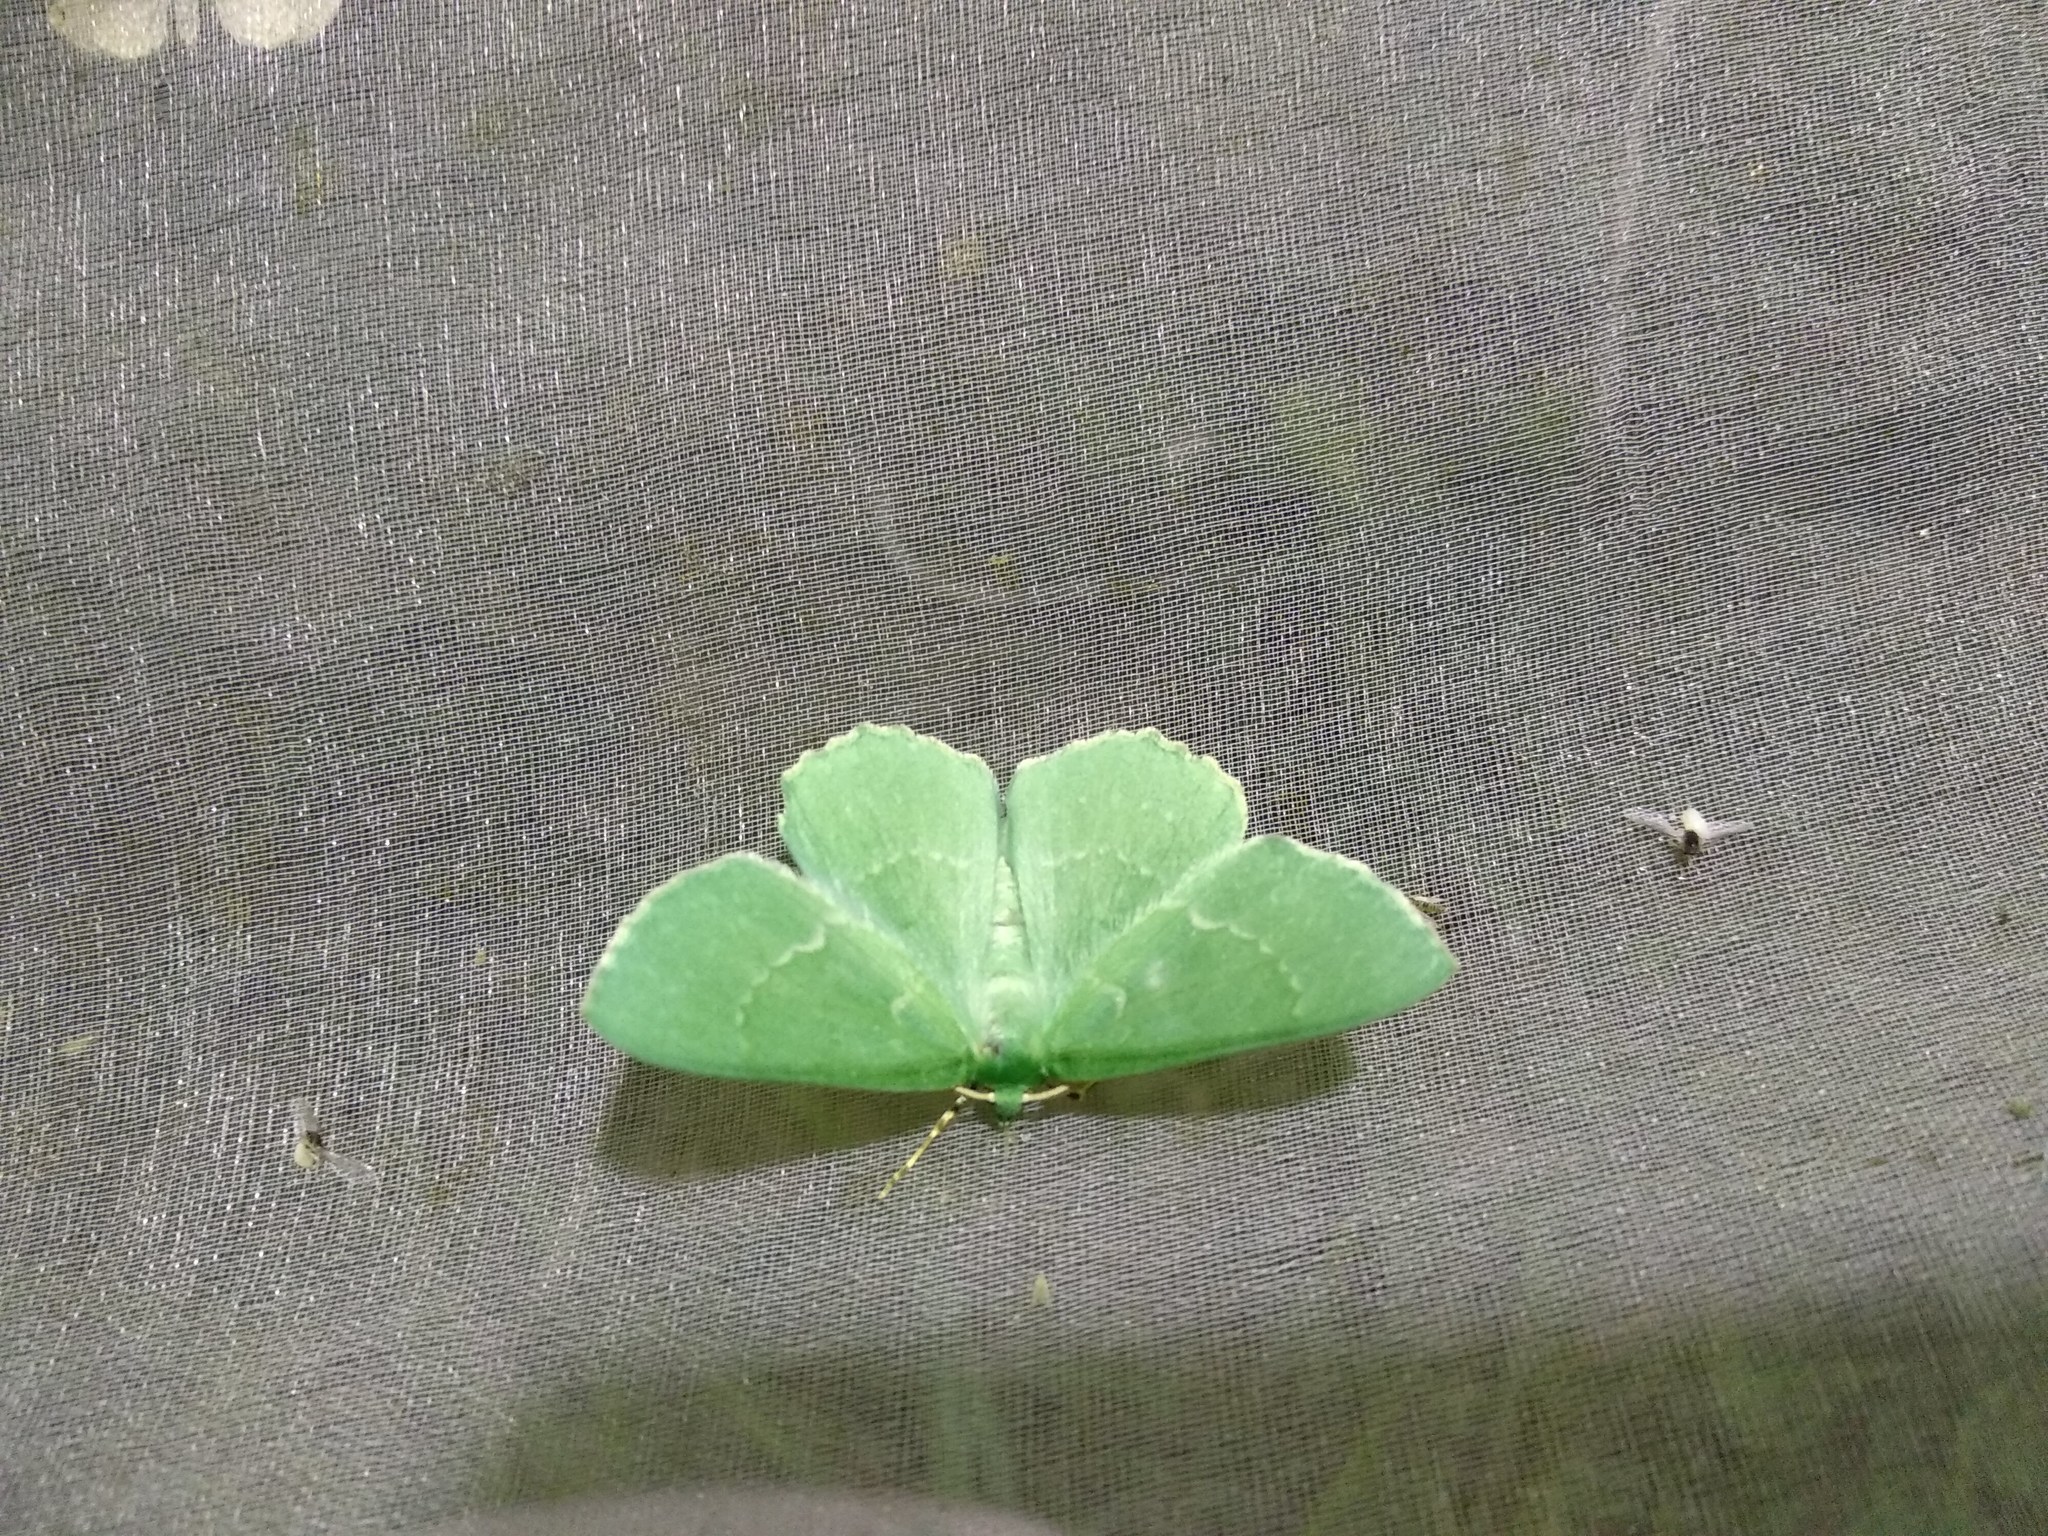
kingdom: Animalia
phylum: Arthropoda
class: Insecta
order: Lepidoptera
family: Geometridae
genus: Geometra
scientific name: Geometra papilionaria
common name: Large emerald
